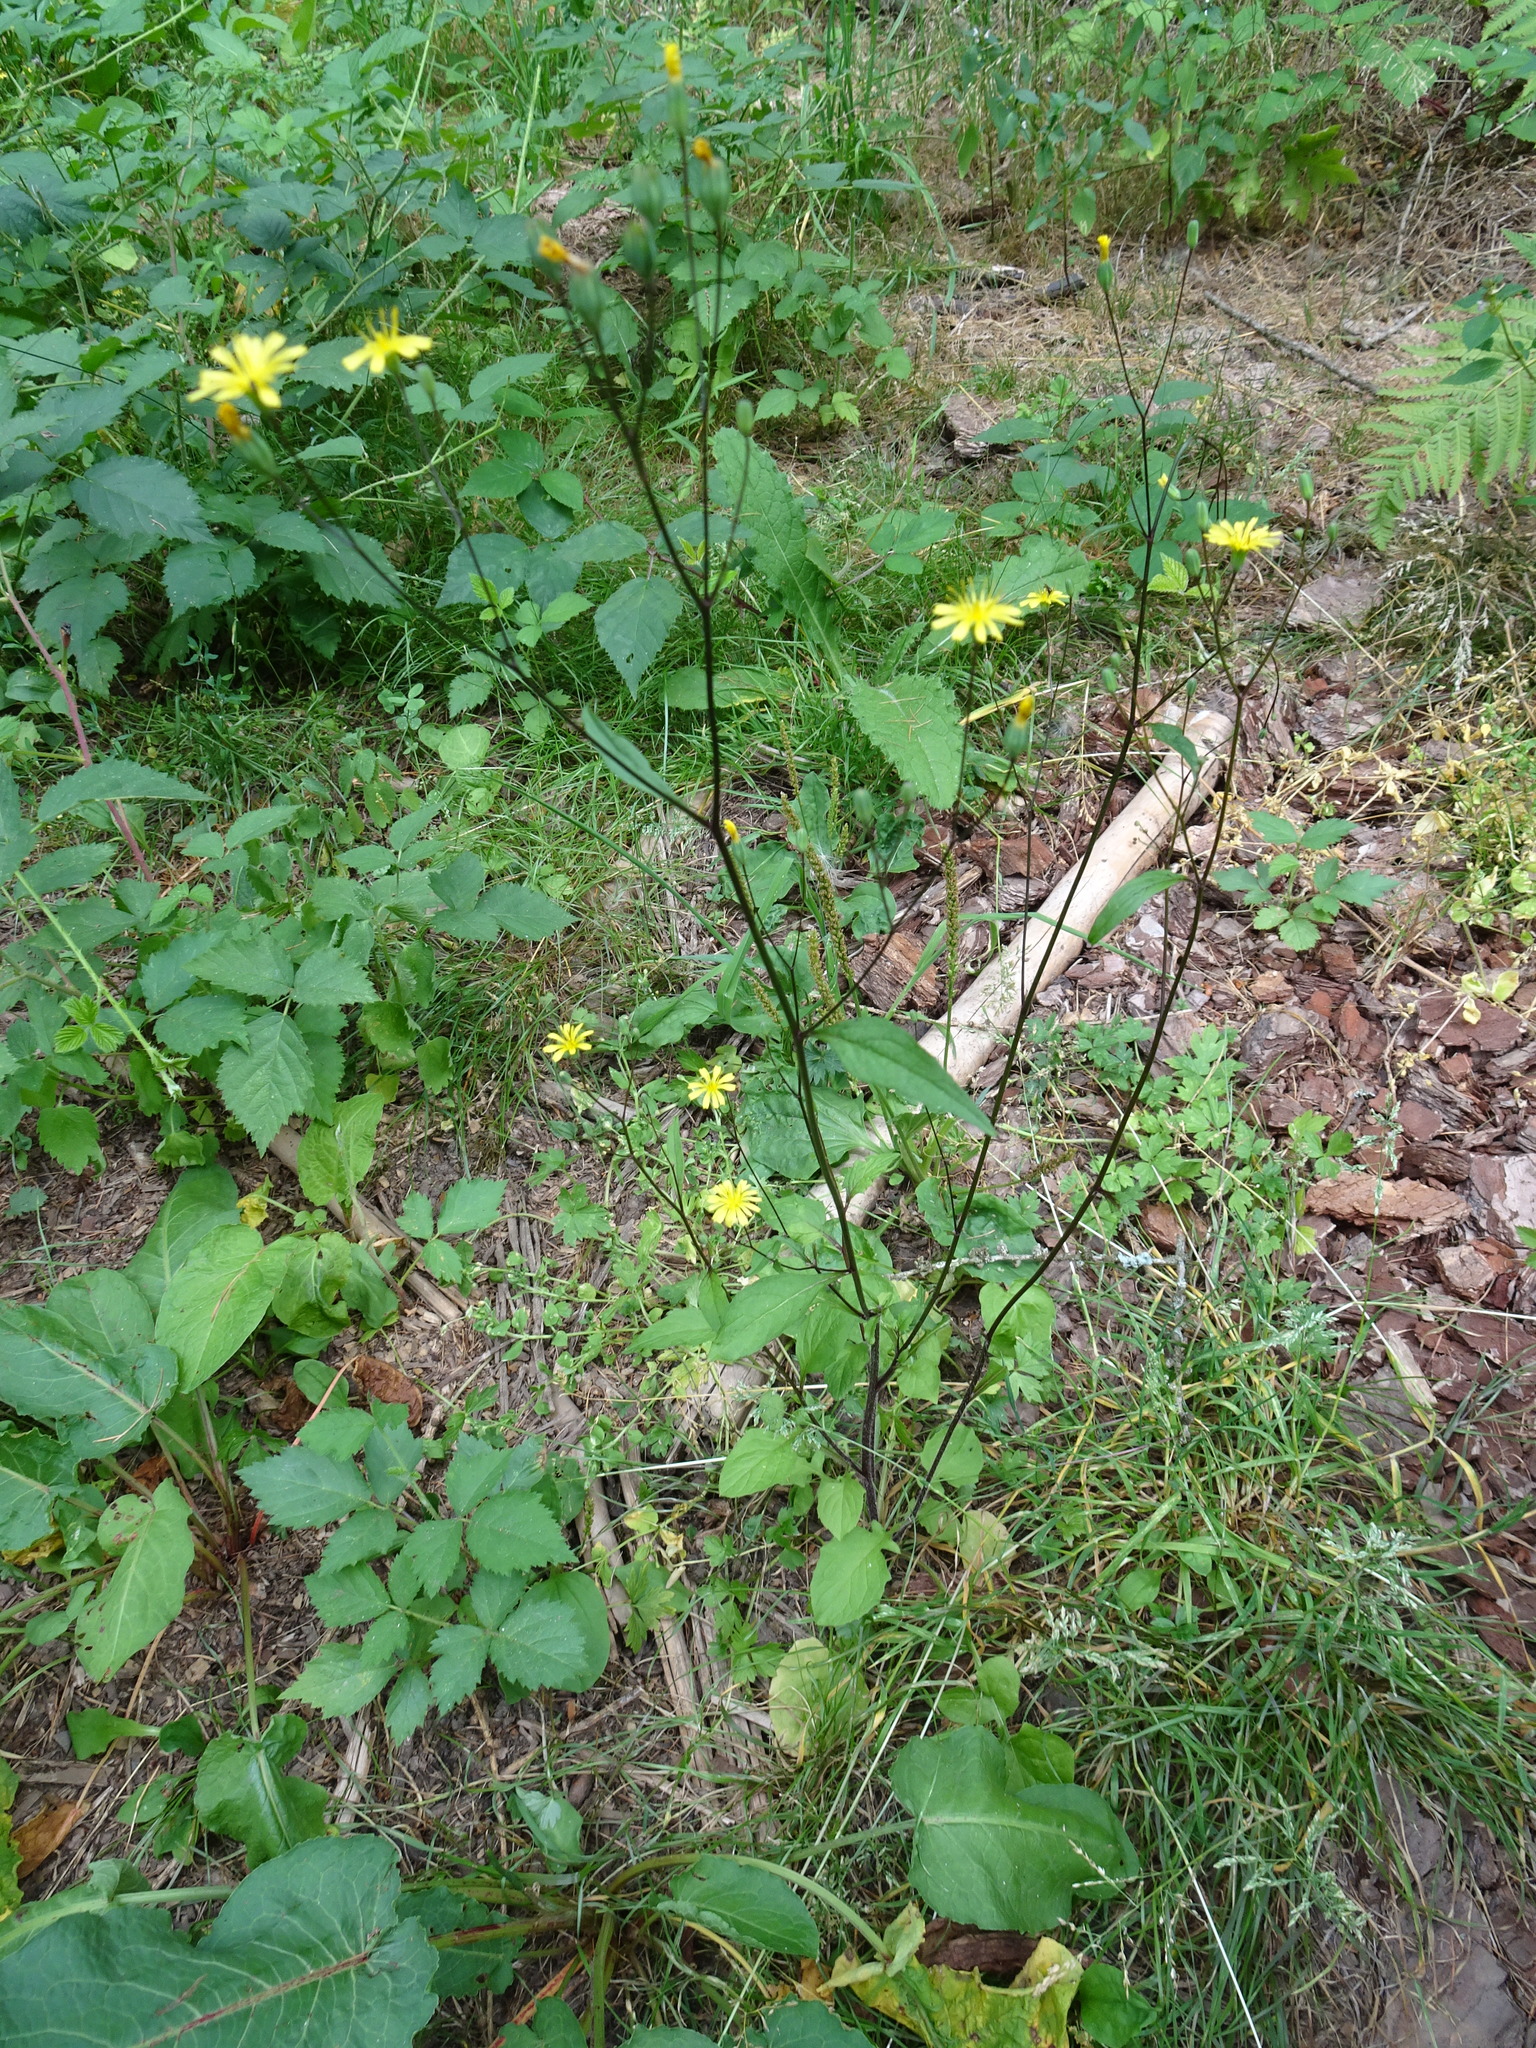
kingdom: Plantae
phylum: Tracheophyta
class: Magnoliopsida
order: Asterales
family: Asteraceae
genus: Lapsana
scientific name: Lapsana communis
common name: Nipplewort
